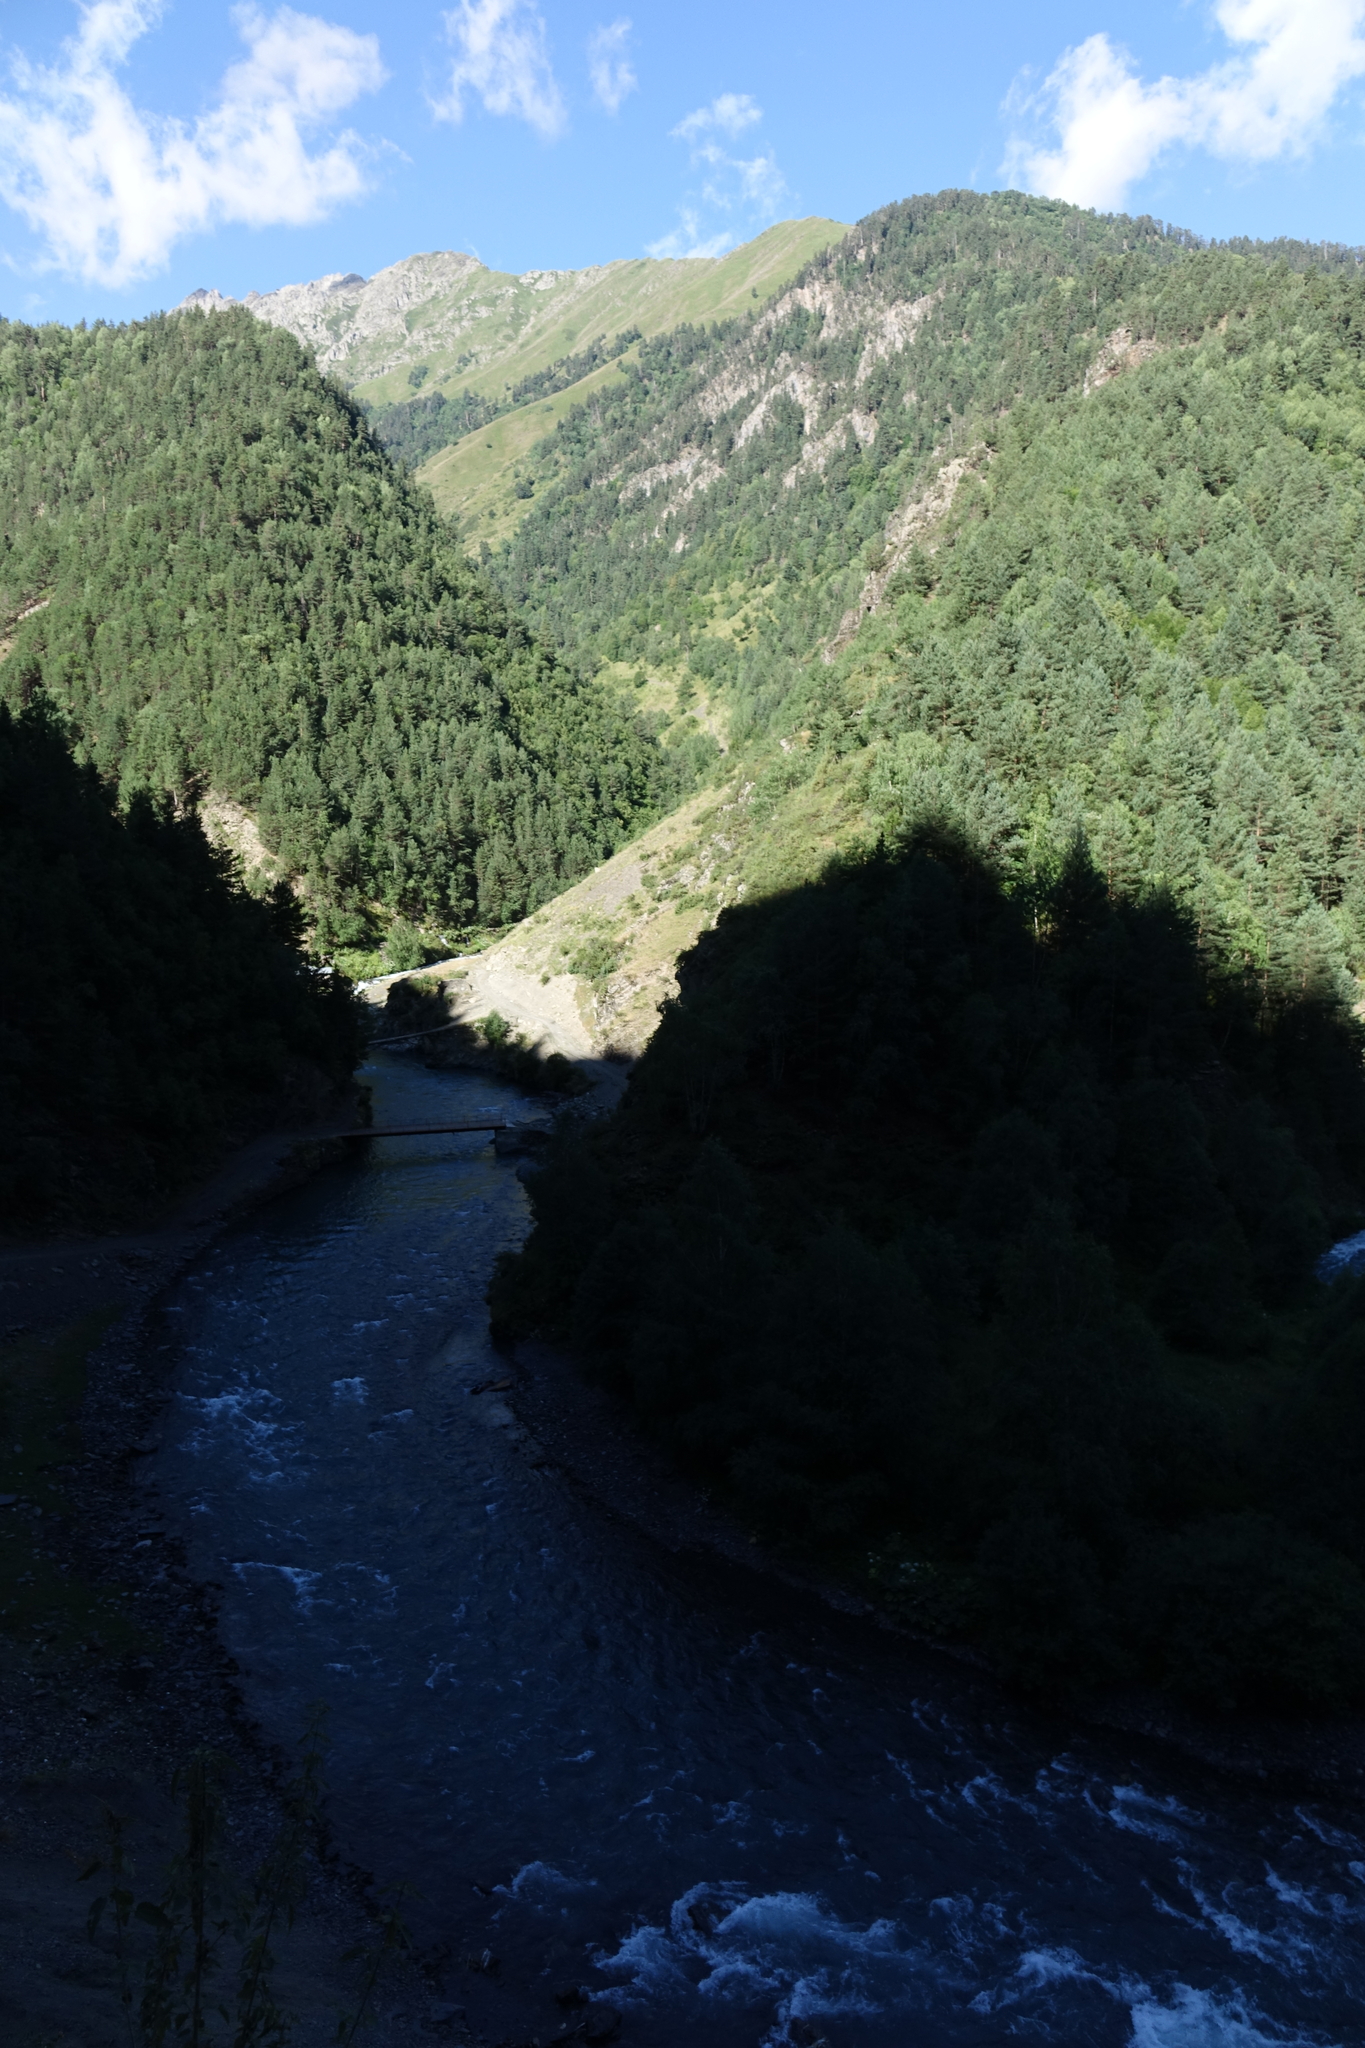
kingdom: Plantae
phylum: Tracheophyta
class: Pinopsida
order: Pinales
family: Pinaceae
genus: Pinus
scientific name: Pinus sylvestris
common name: Scots pine
